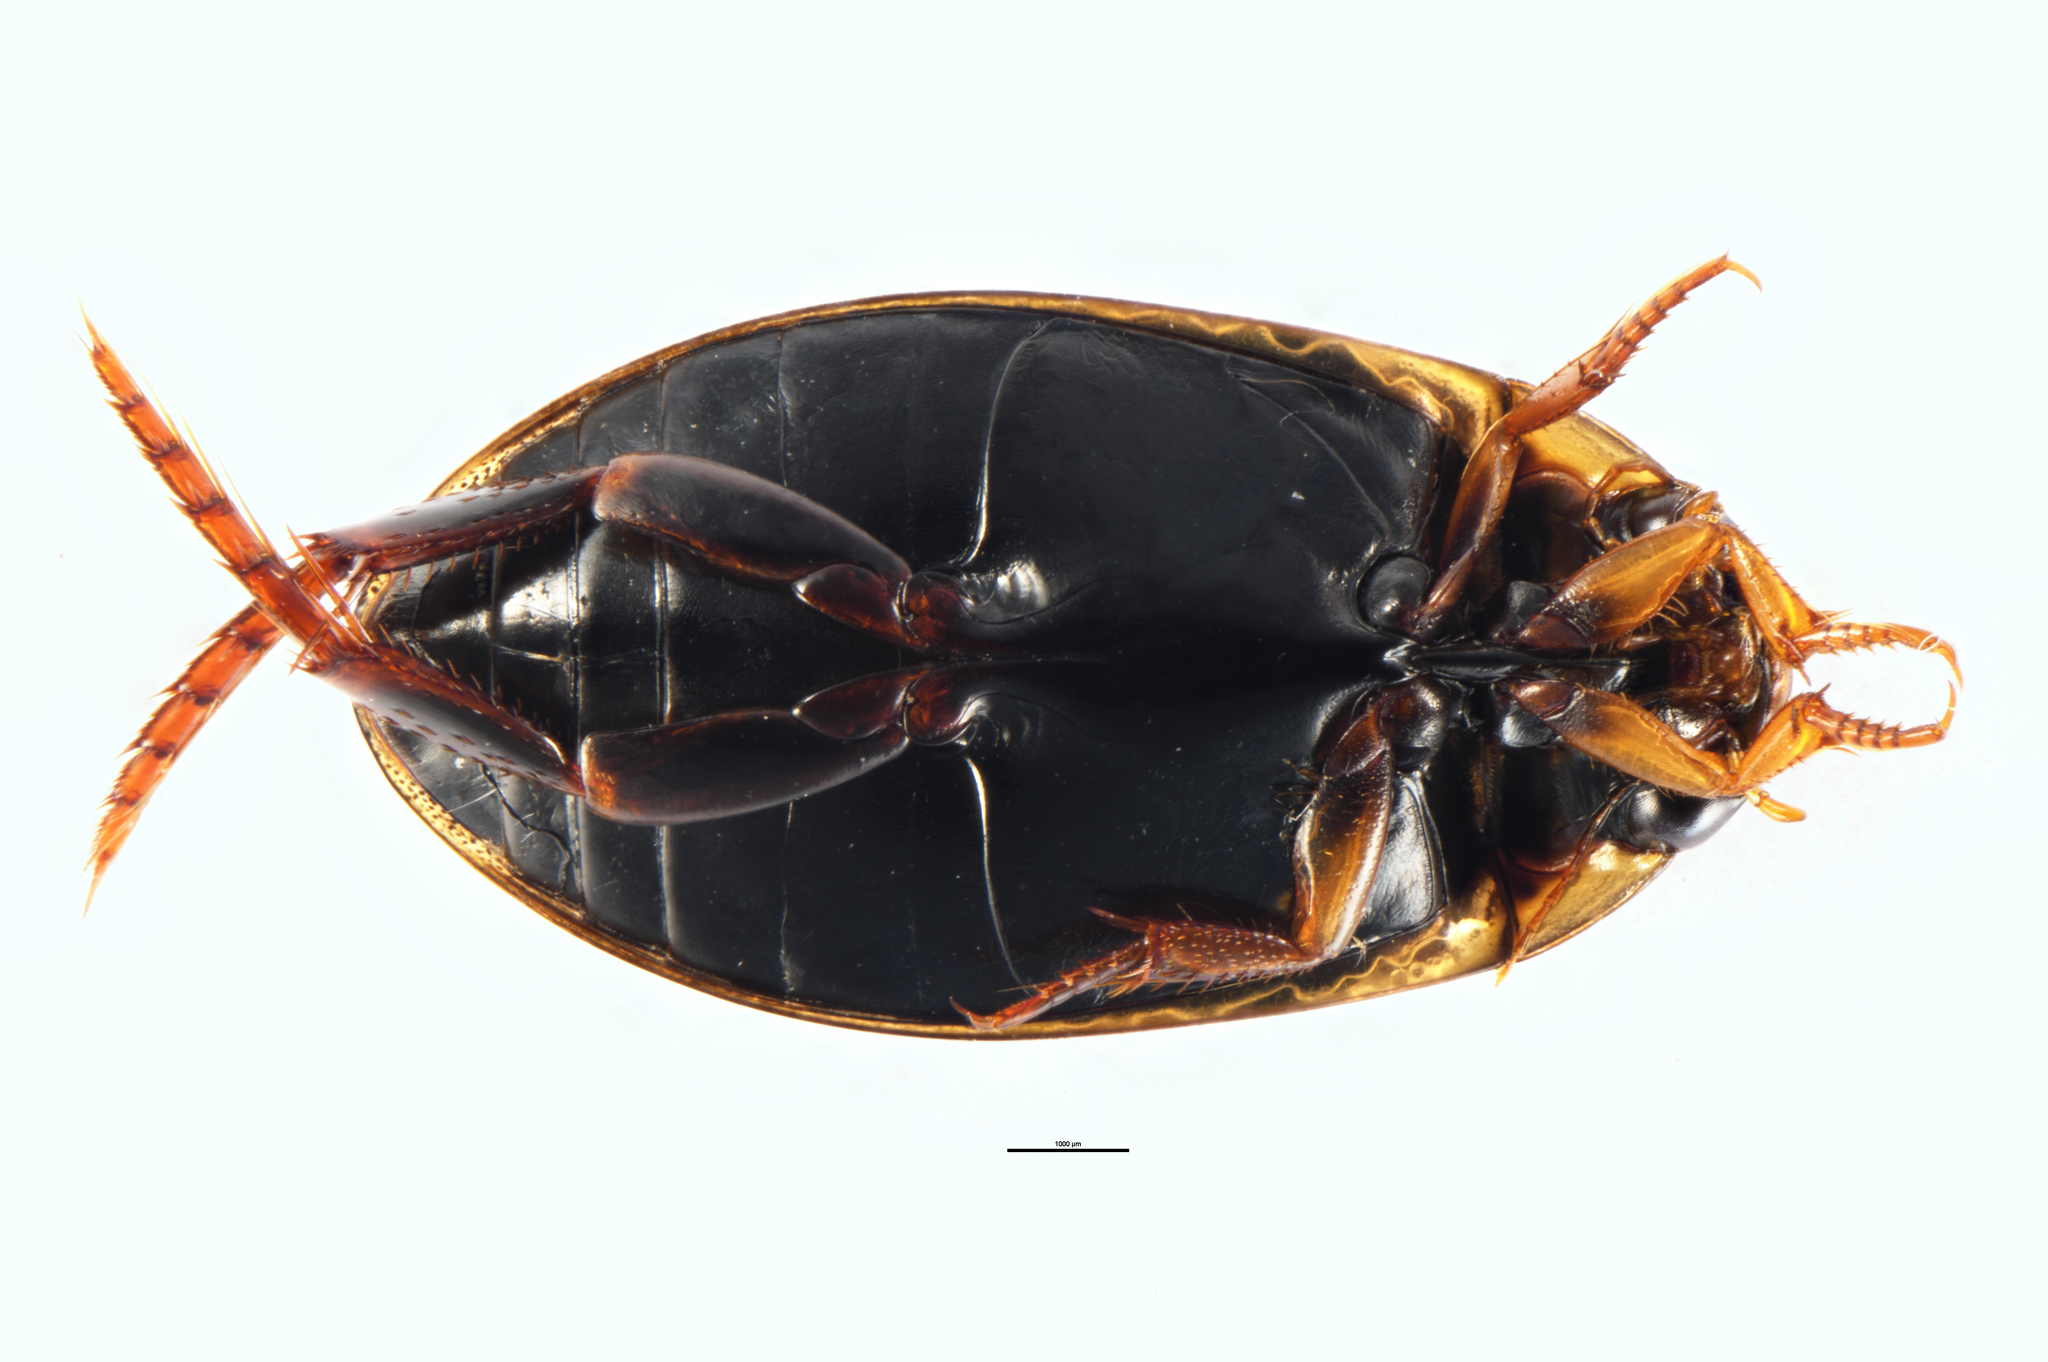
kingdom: Animalia
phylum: Arthropoda
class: Insecta
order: Coleoptera
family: Dytiscidae
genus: Rhantus
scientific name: Rhantus suturalis
